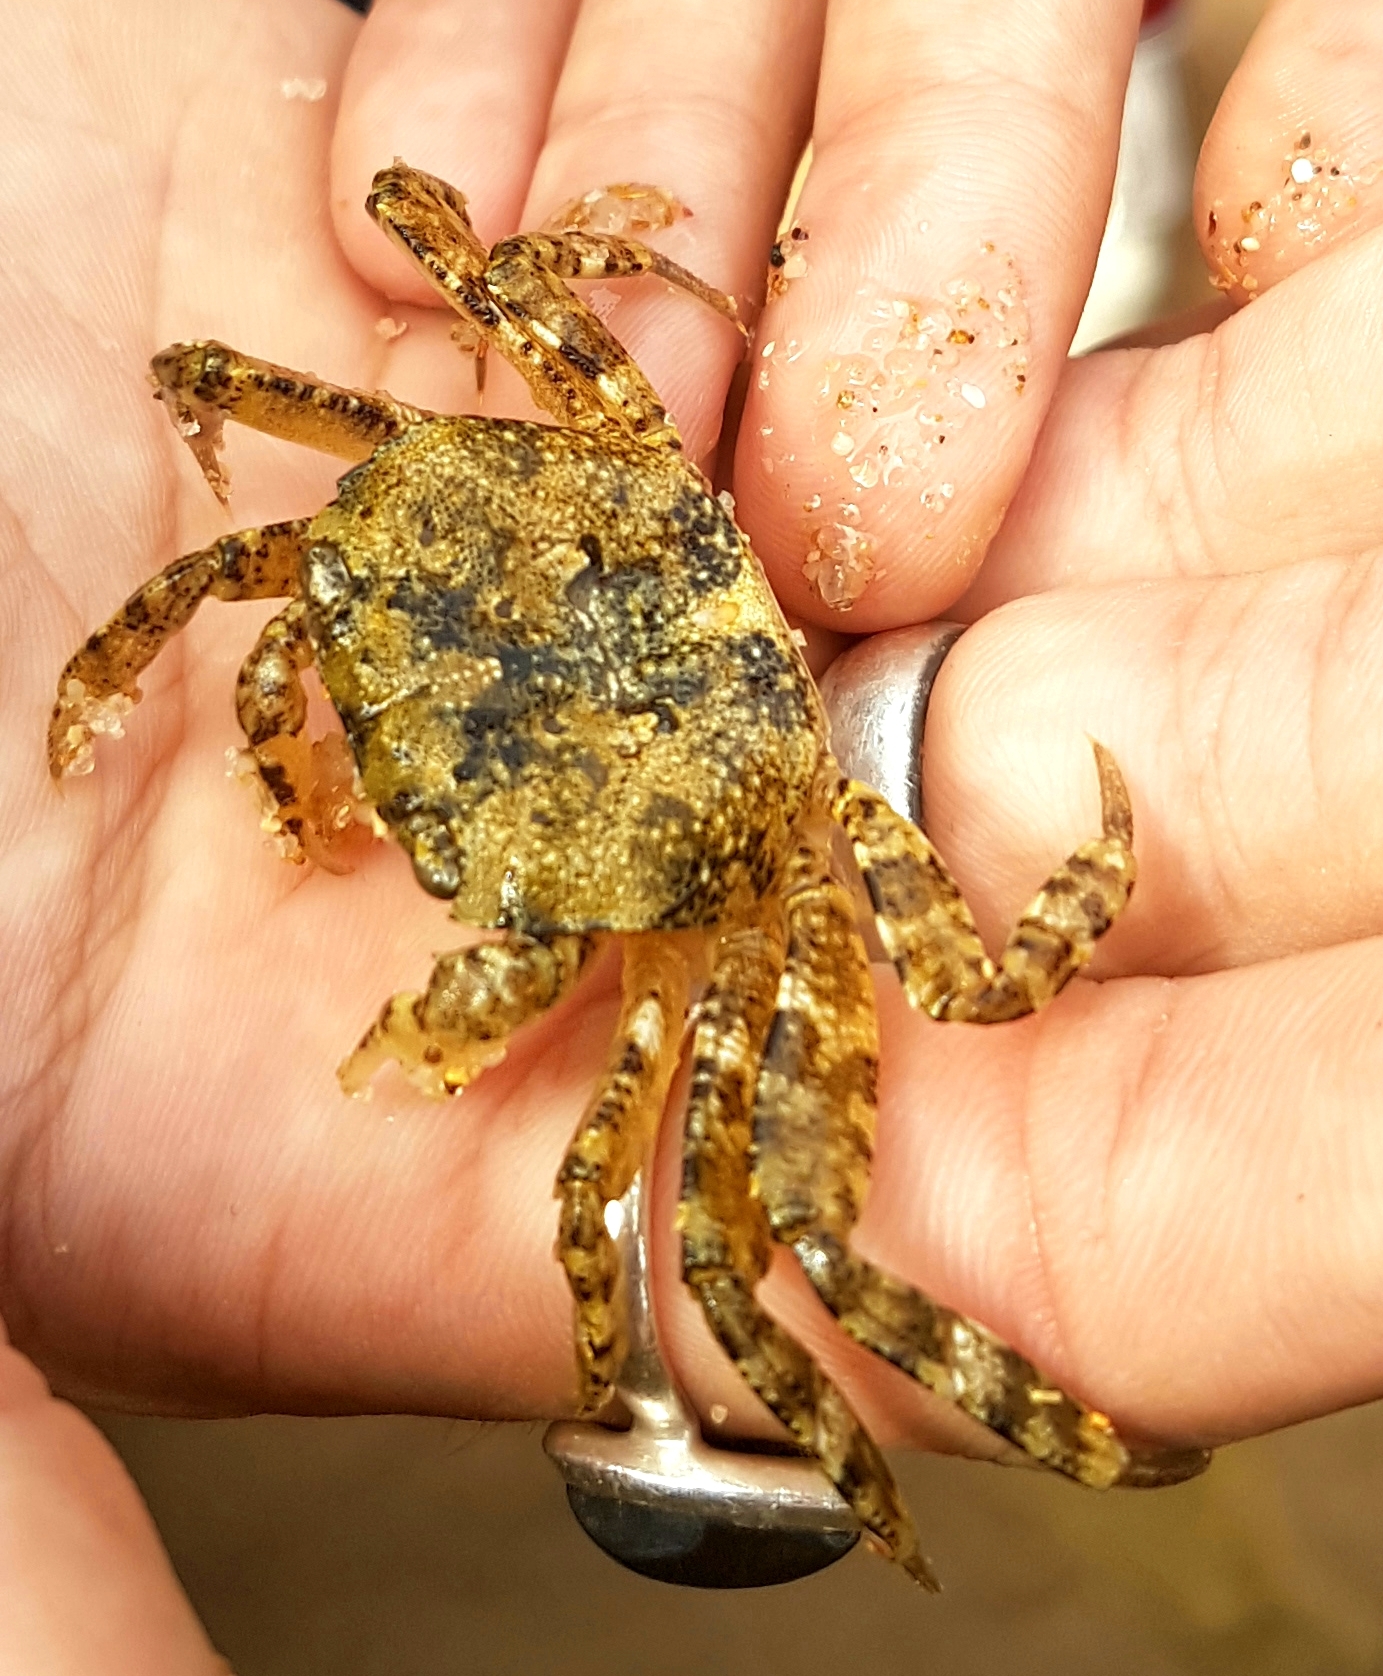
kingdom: Animalia
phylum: Arthropoda
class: Malacostraca
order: Decapoda
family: Leptograpsodidae
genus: Leptograpsodes
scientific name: Leptograpsodes octodentatus
